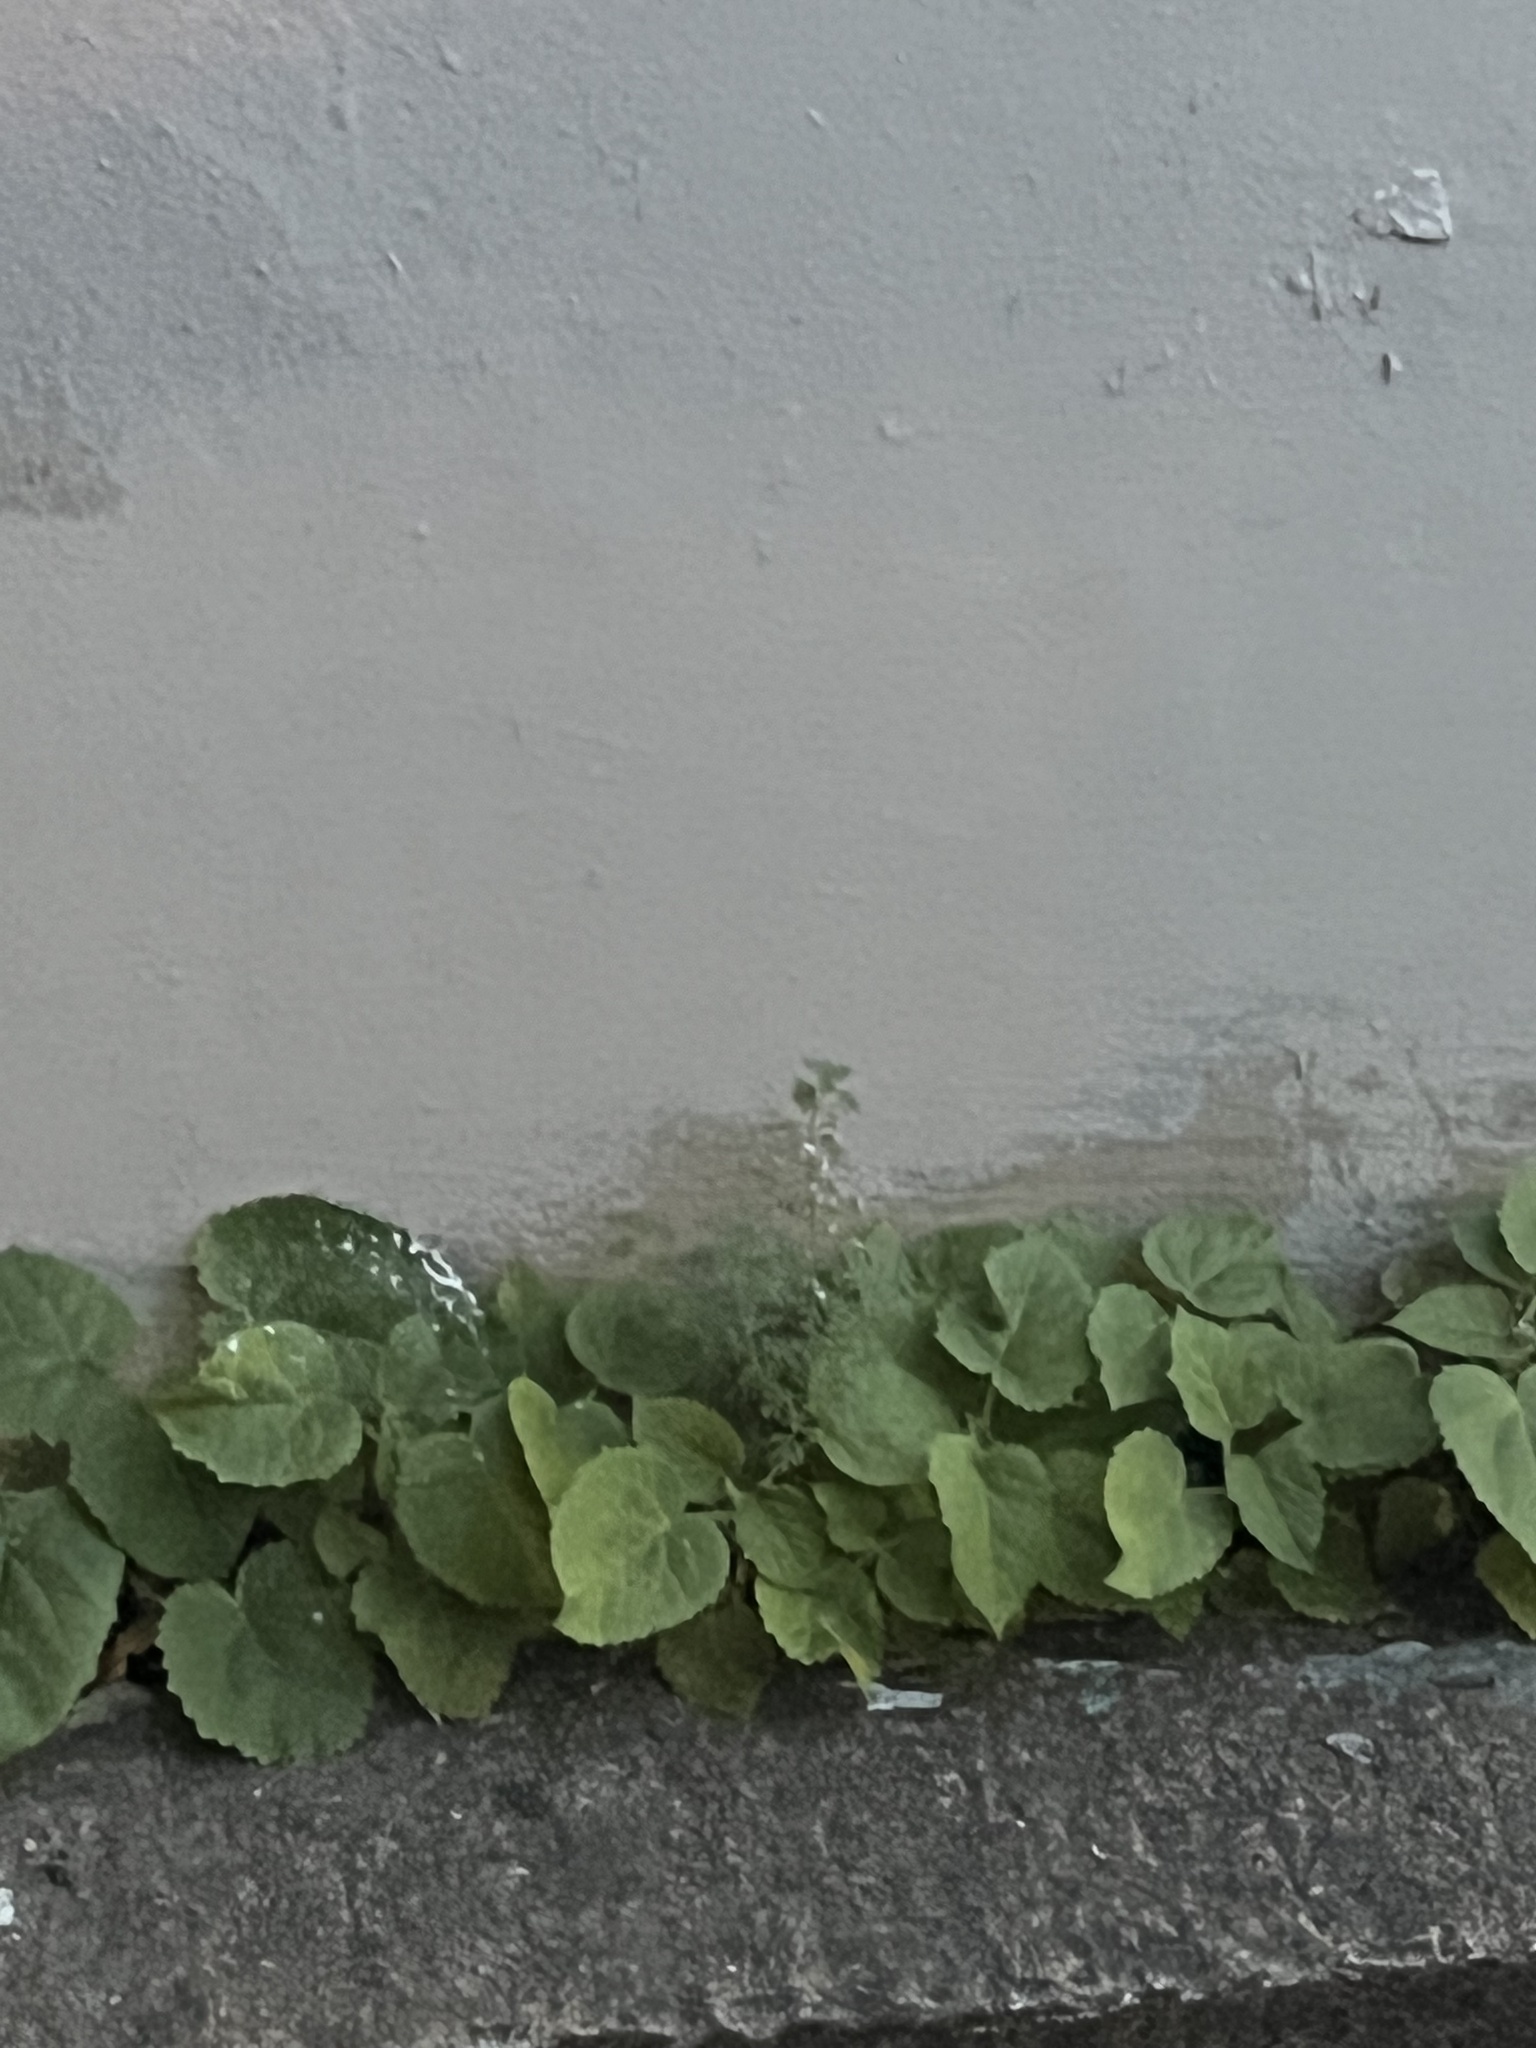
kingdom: Plantae
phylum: Tracheophyta
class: Magnoliopsida
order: Lamiales
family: Paulowniaceae
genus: Paulownia
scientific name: Paulownia tomentosa
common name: Foxglove-tree
